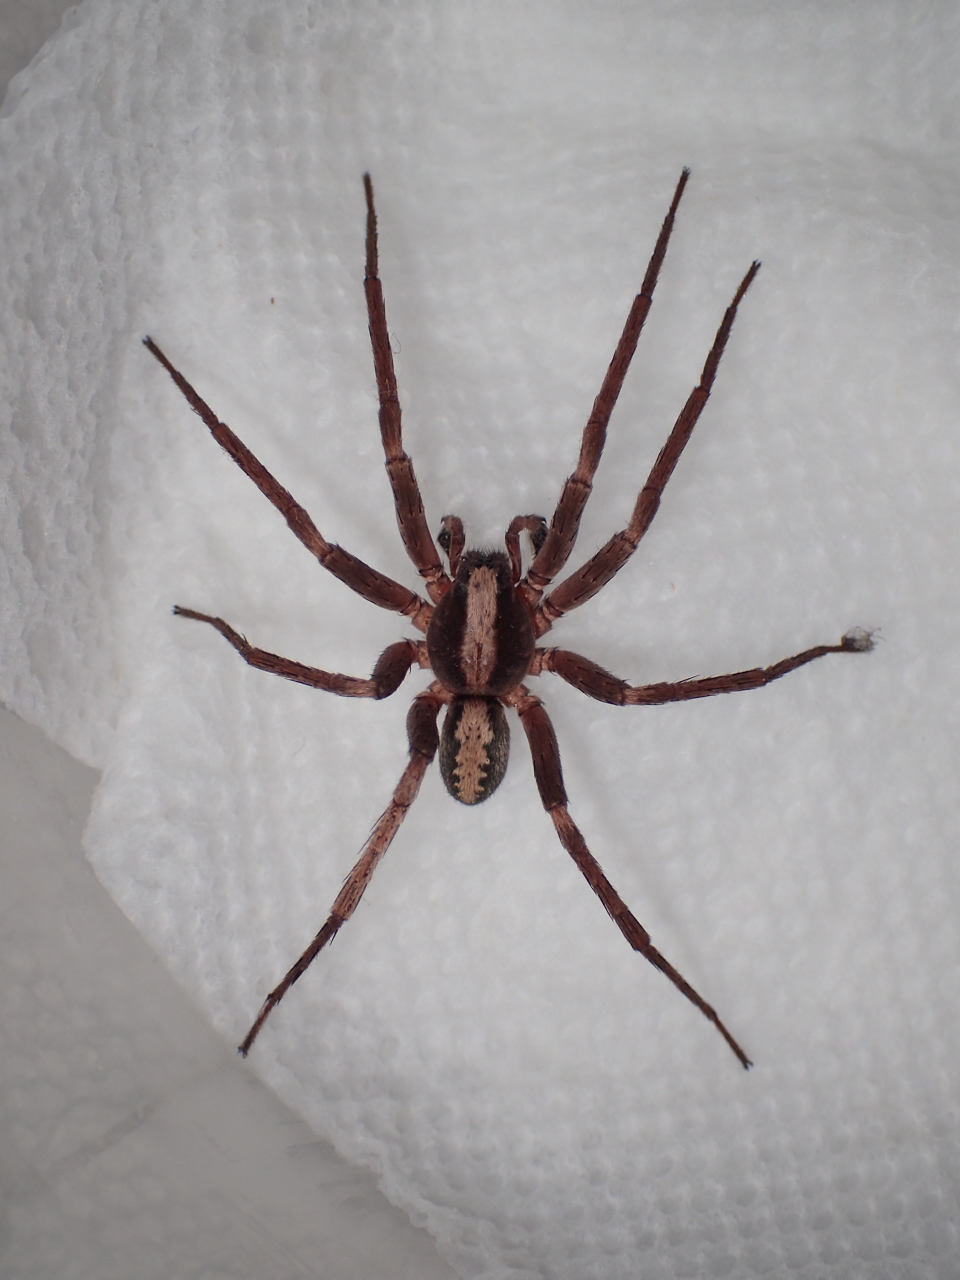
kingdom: Animalia
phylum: Arthropoda
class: Arachnida
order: Araneae
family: Ctenidae
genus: Ctenus
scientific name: Ctenus hibernalis
